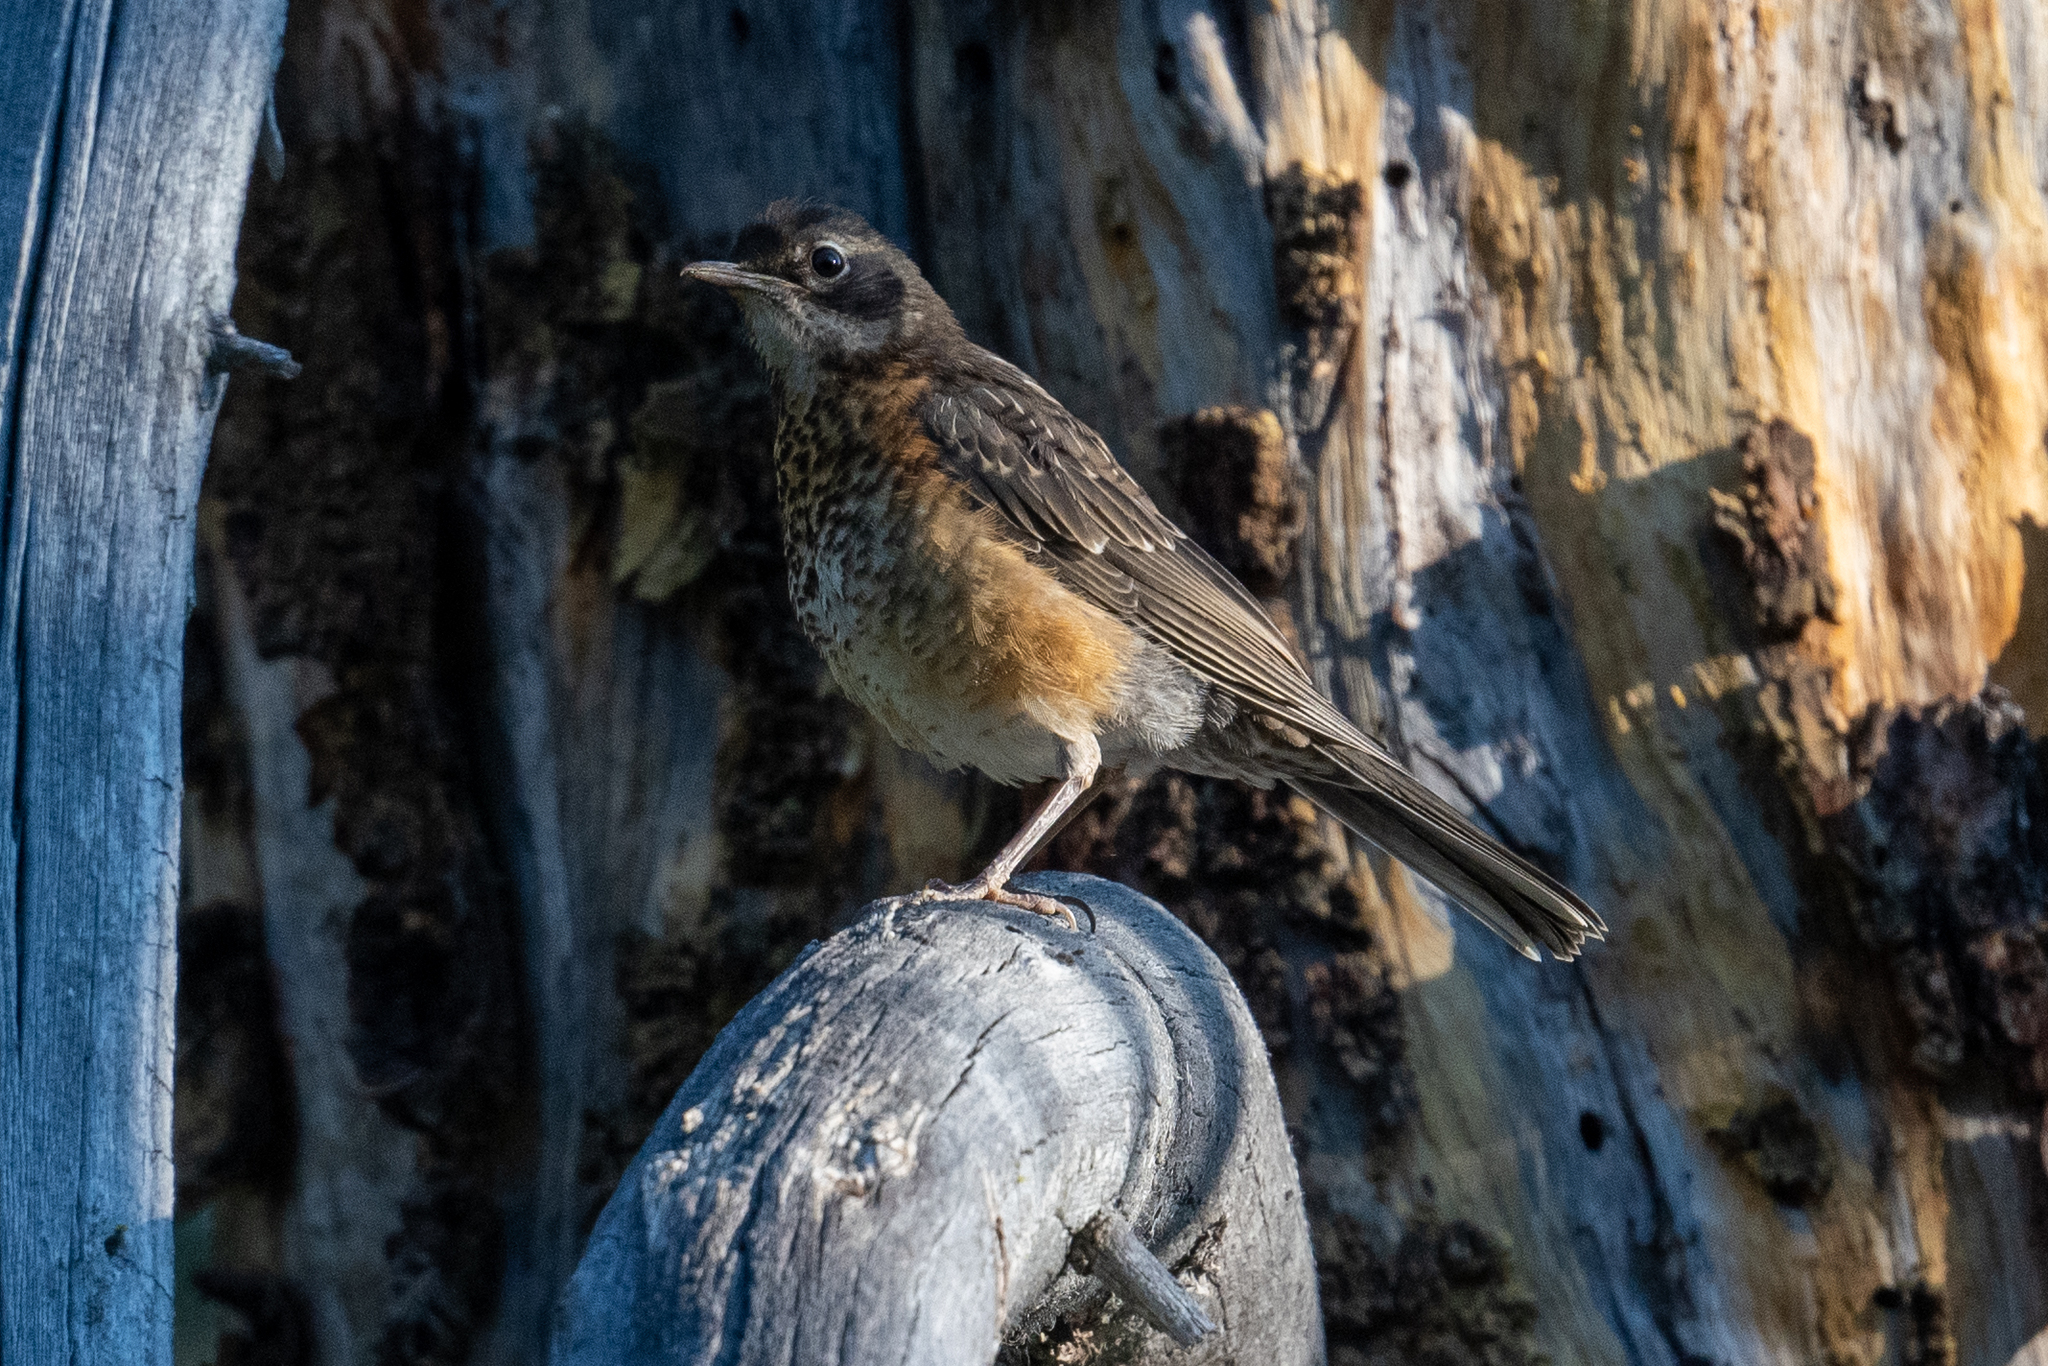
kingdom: Animalia
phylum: Chordata
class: Aves
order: Passeriformes
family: Turdidae
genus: Turdus
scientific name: Turdus migratorius
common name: American robin
